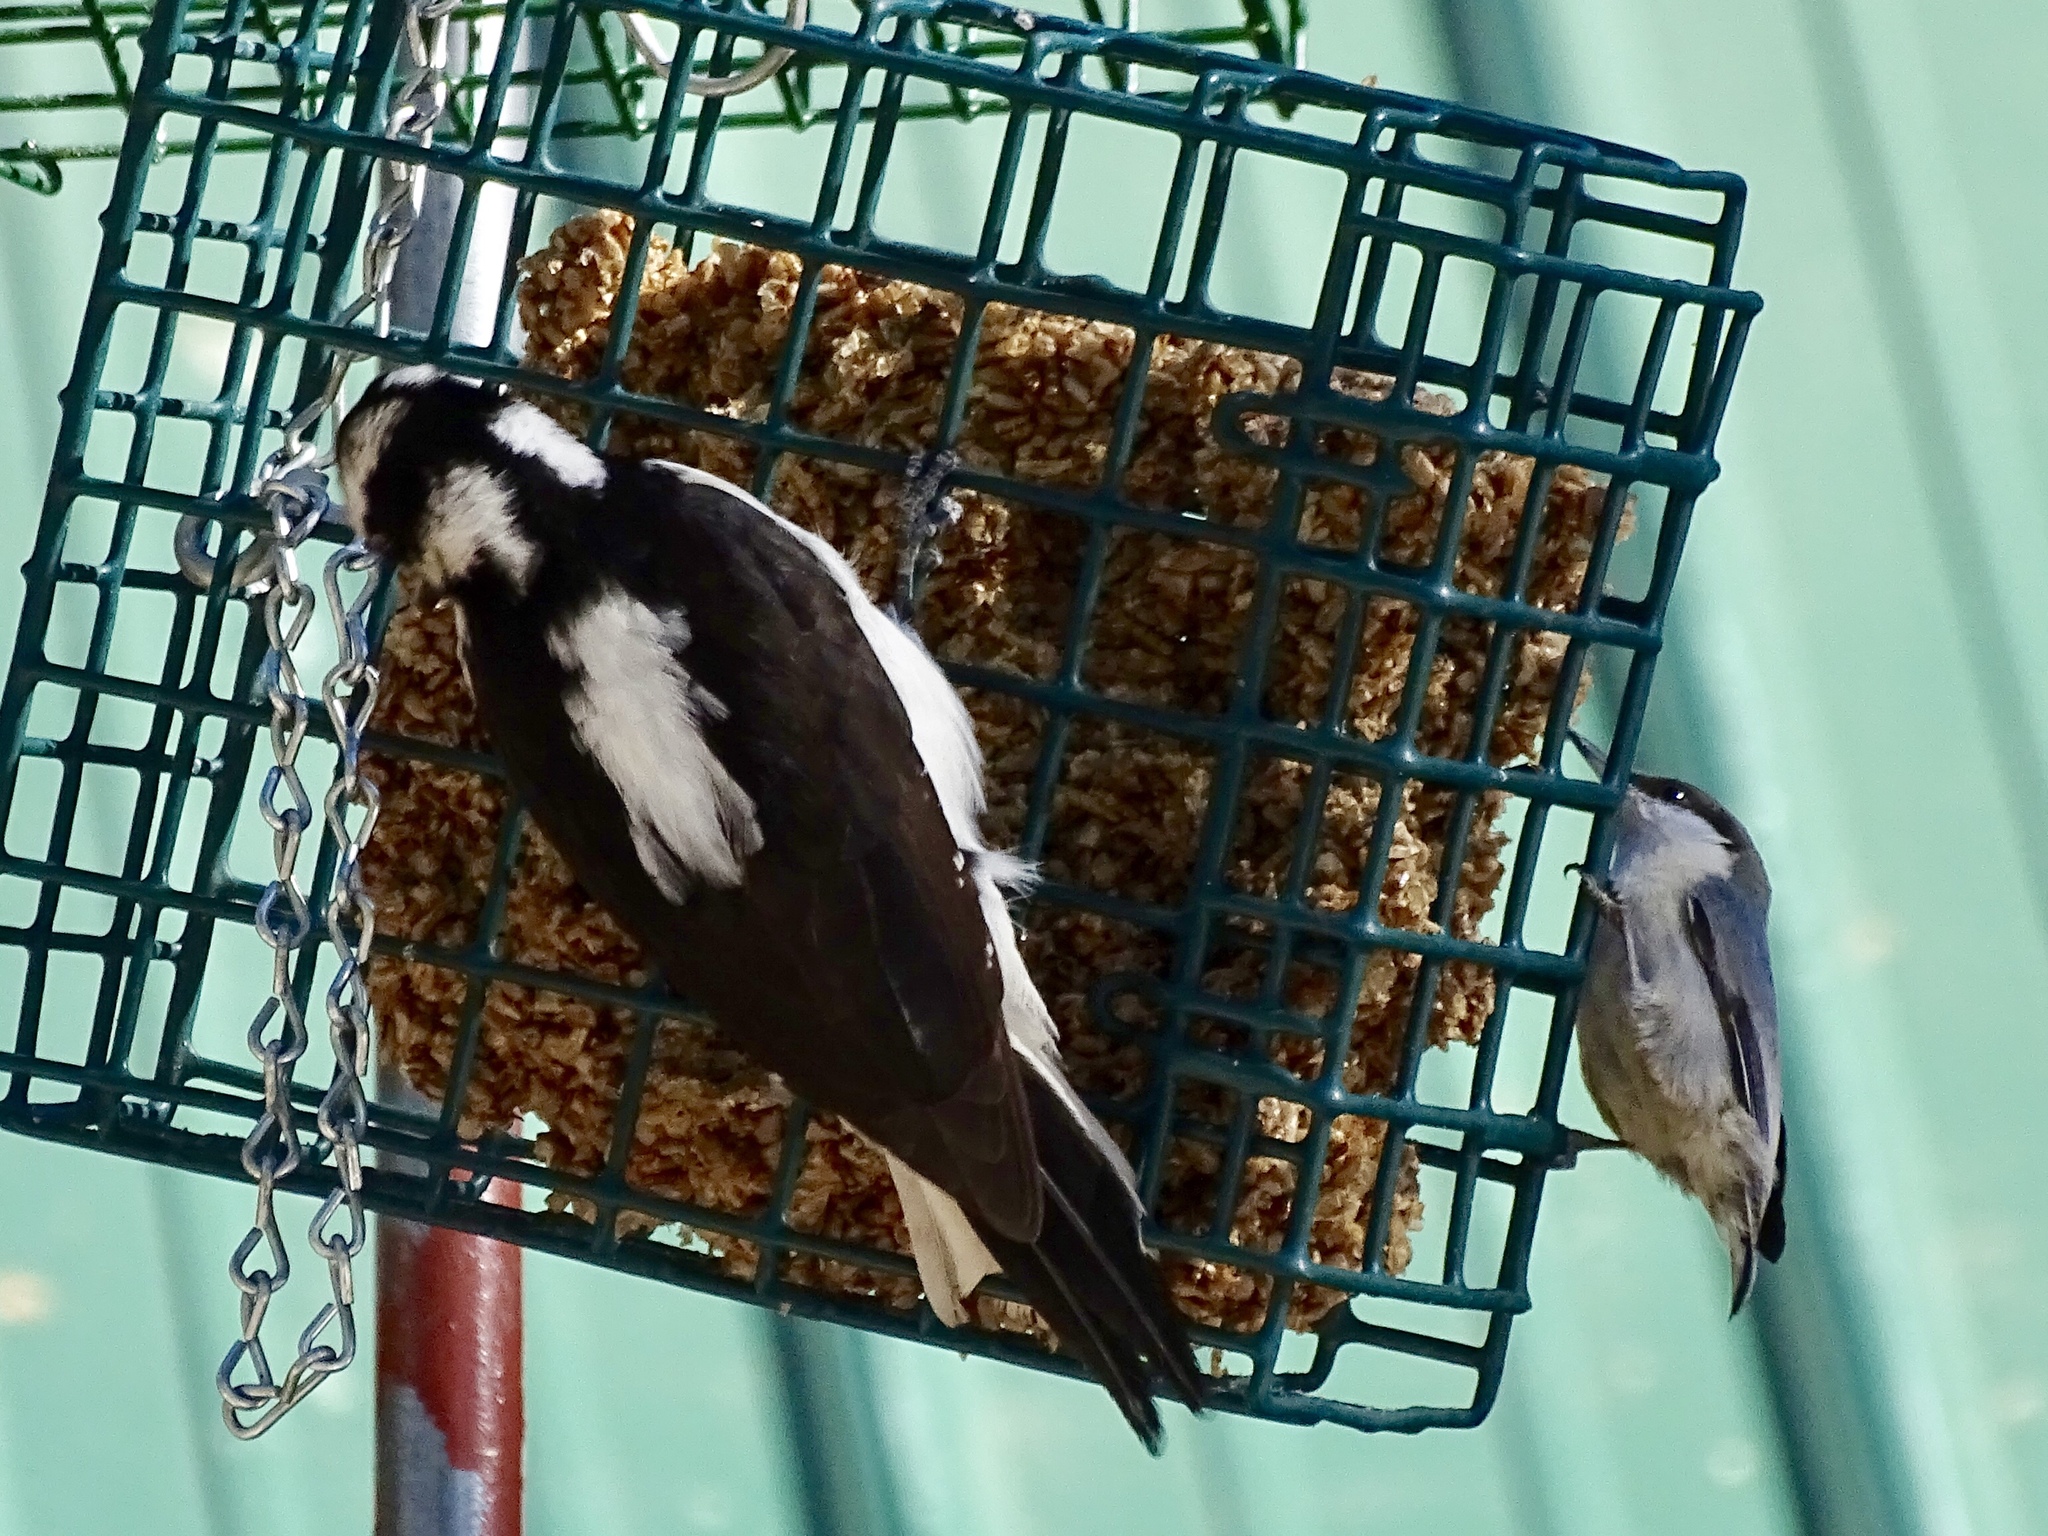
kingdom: Animalia
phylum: Chordata
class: Aves
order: Passeriformes
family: Sittidae
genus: Sitta
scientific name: Sitta pygmaea
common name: Pygmy nuthatch
